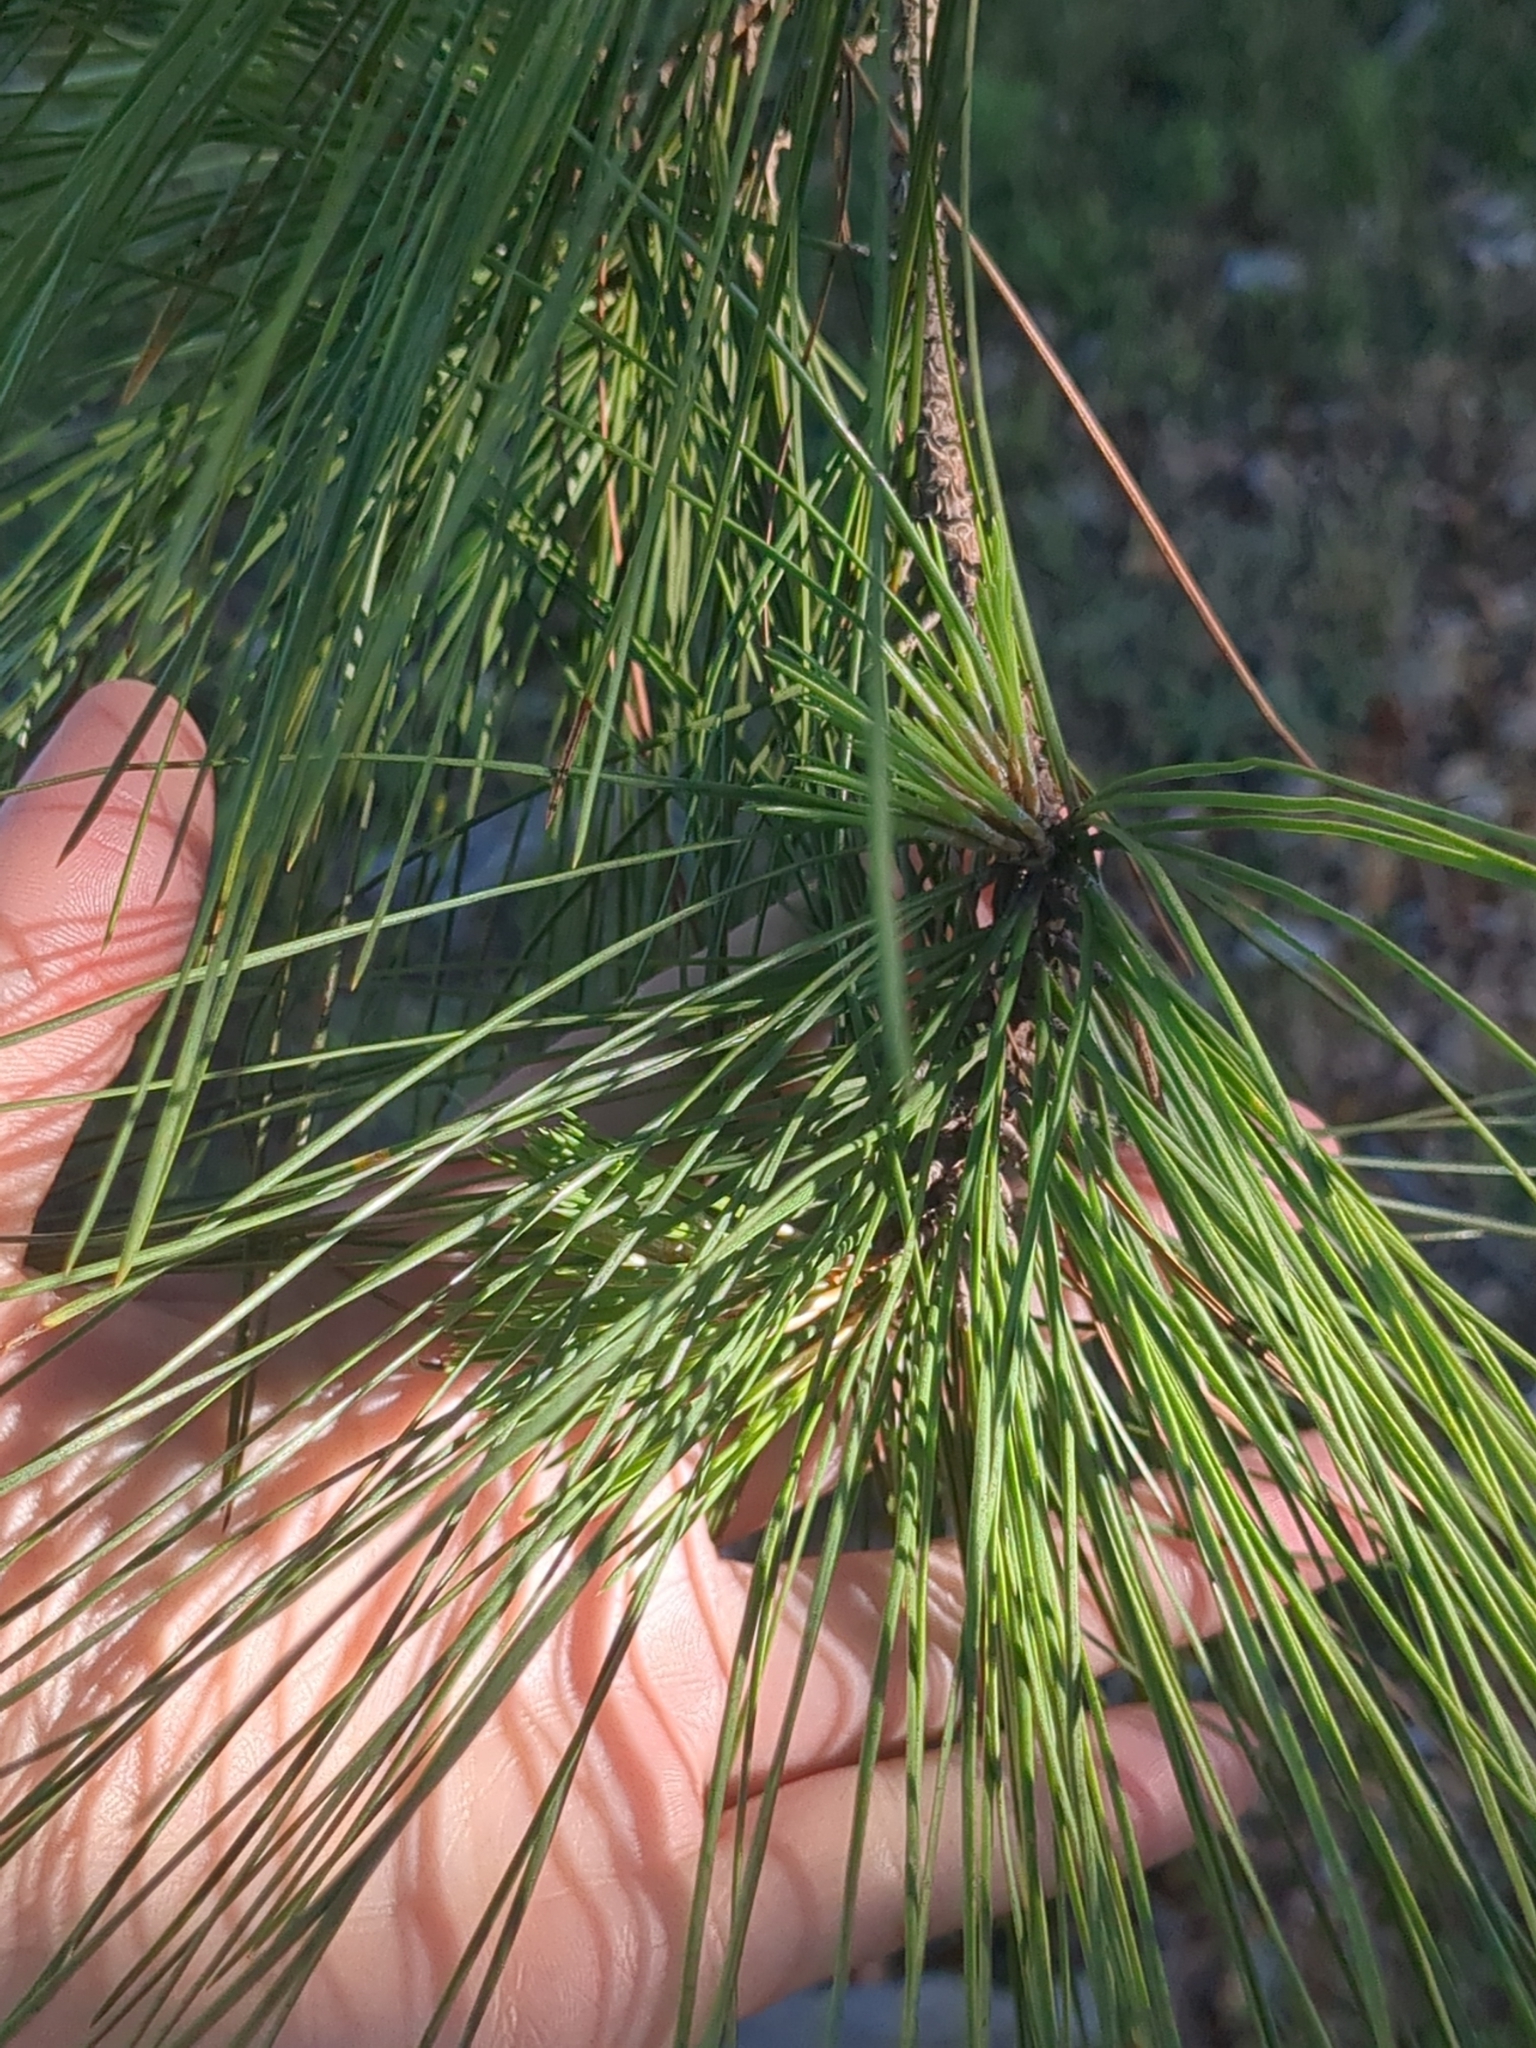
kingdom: Plantae
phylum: Tracheophyta
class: Pinopsida
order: Pinales
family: Pinaceae
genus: Pinus
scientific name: Pinus taeda
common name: Loblolly pine
